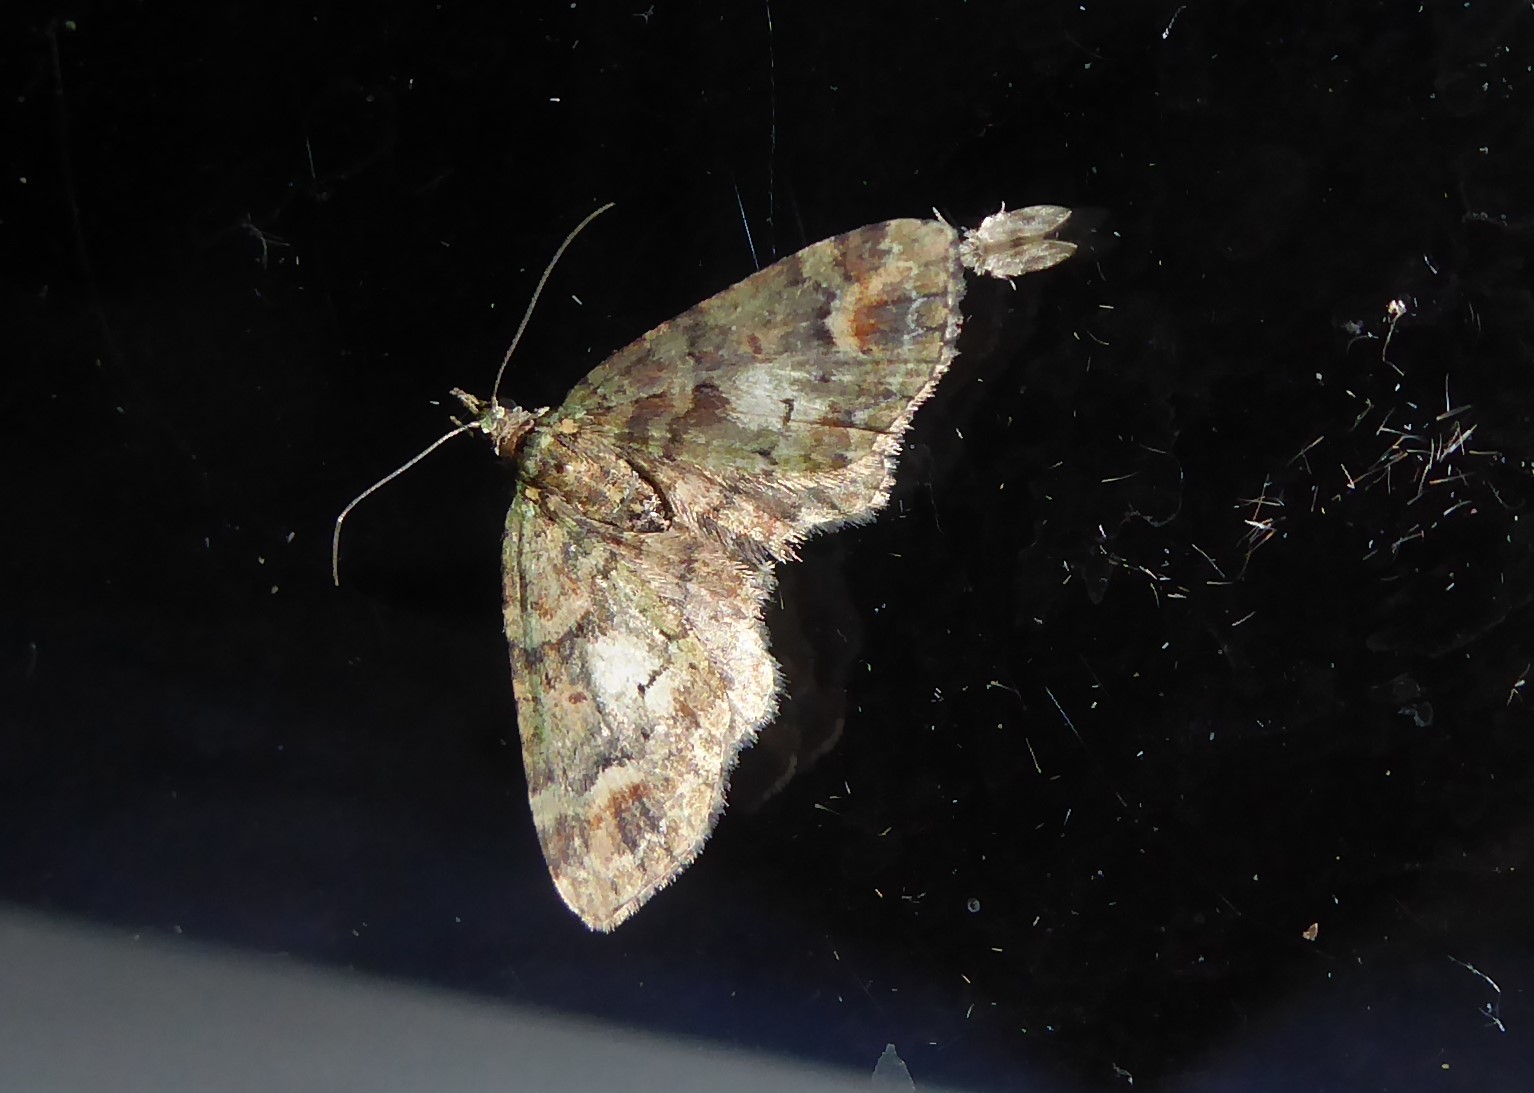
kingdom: Animalia
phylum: Arthropoda
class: Insecta
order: Lepidoptera
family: Geometridae
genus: Idaea
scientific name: Idaea mutanda
